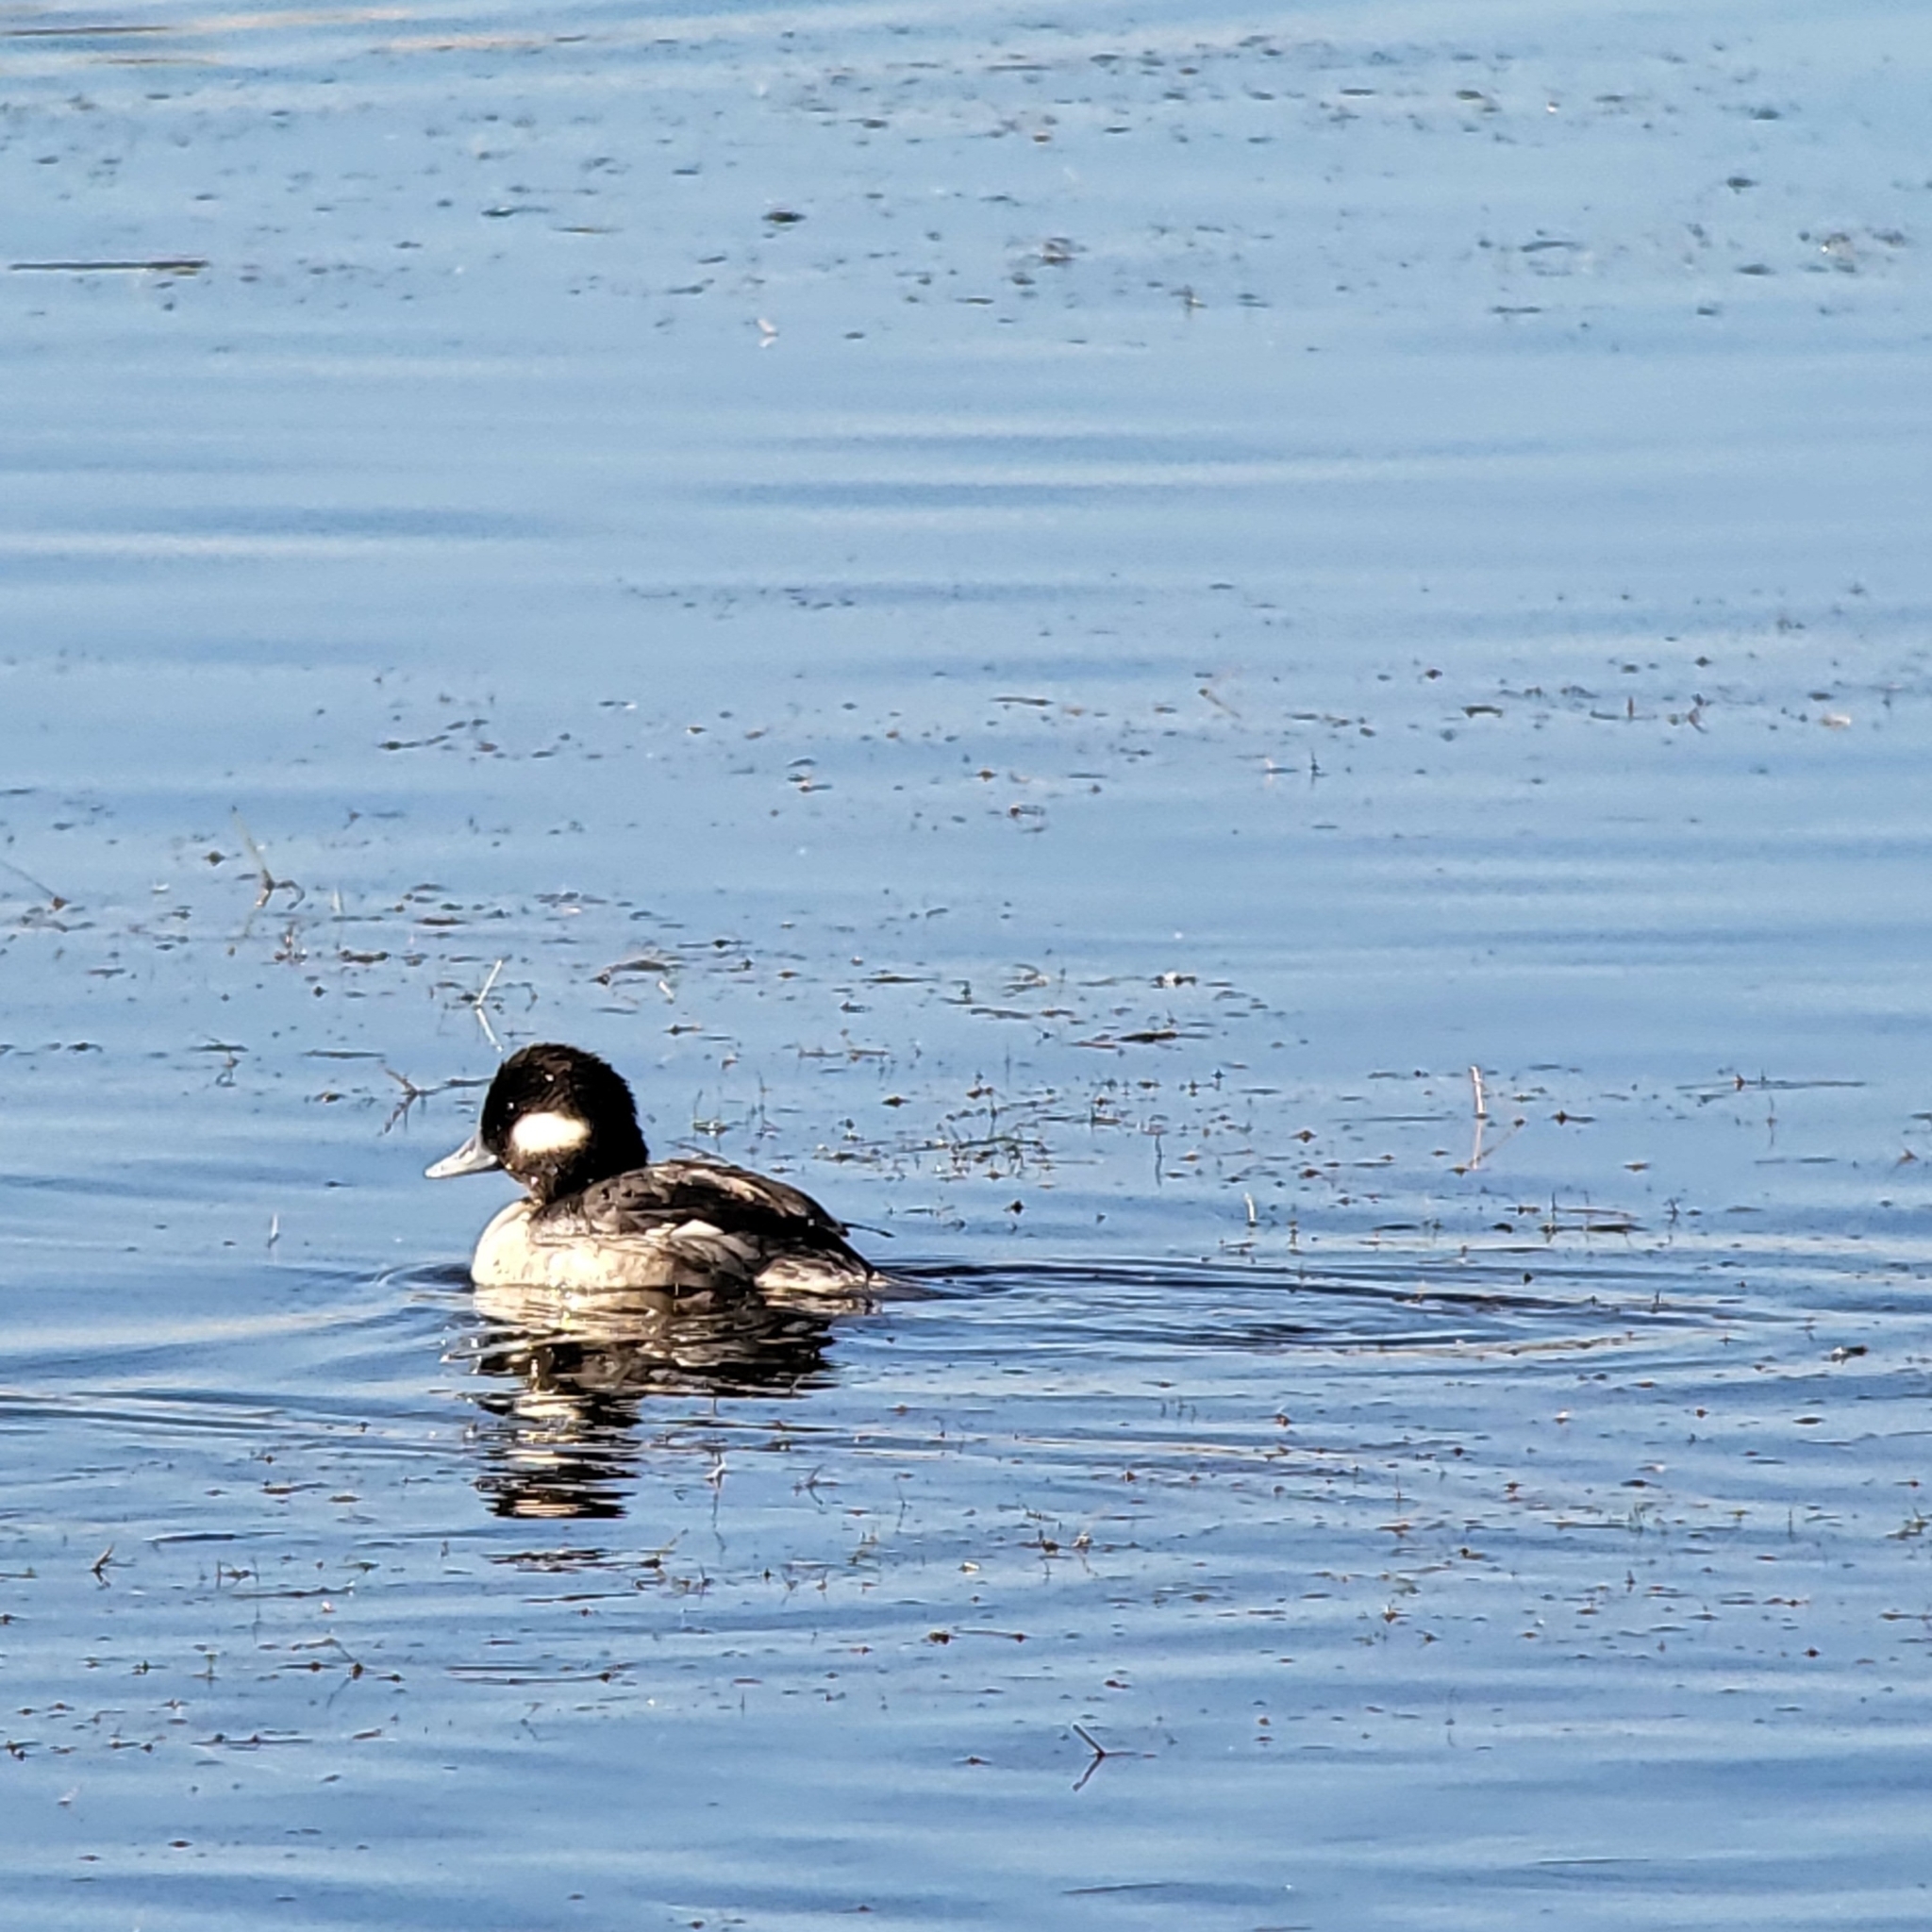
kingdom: Animalia
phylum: Chordata
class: Aves
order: Anseriformes
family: Anatidae
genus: Bucephala
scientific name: Bucephala albeola
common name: Bufflehead
